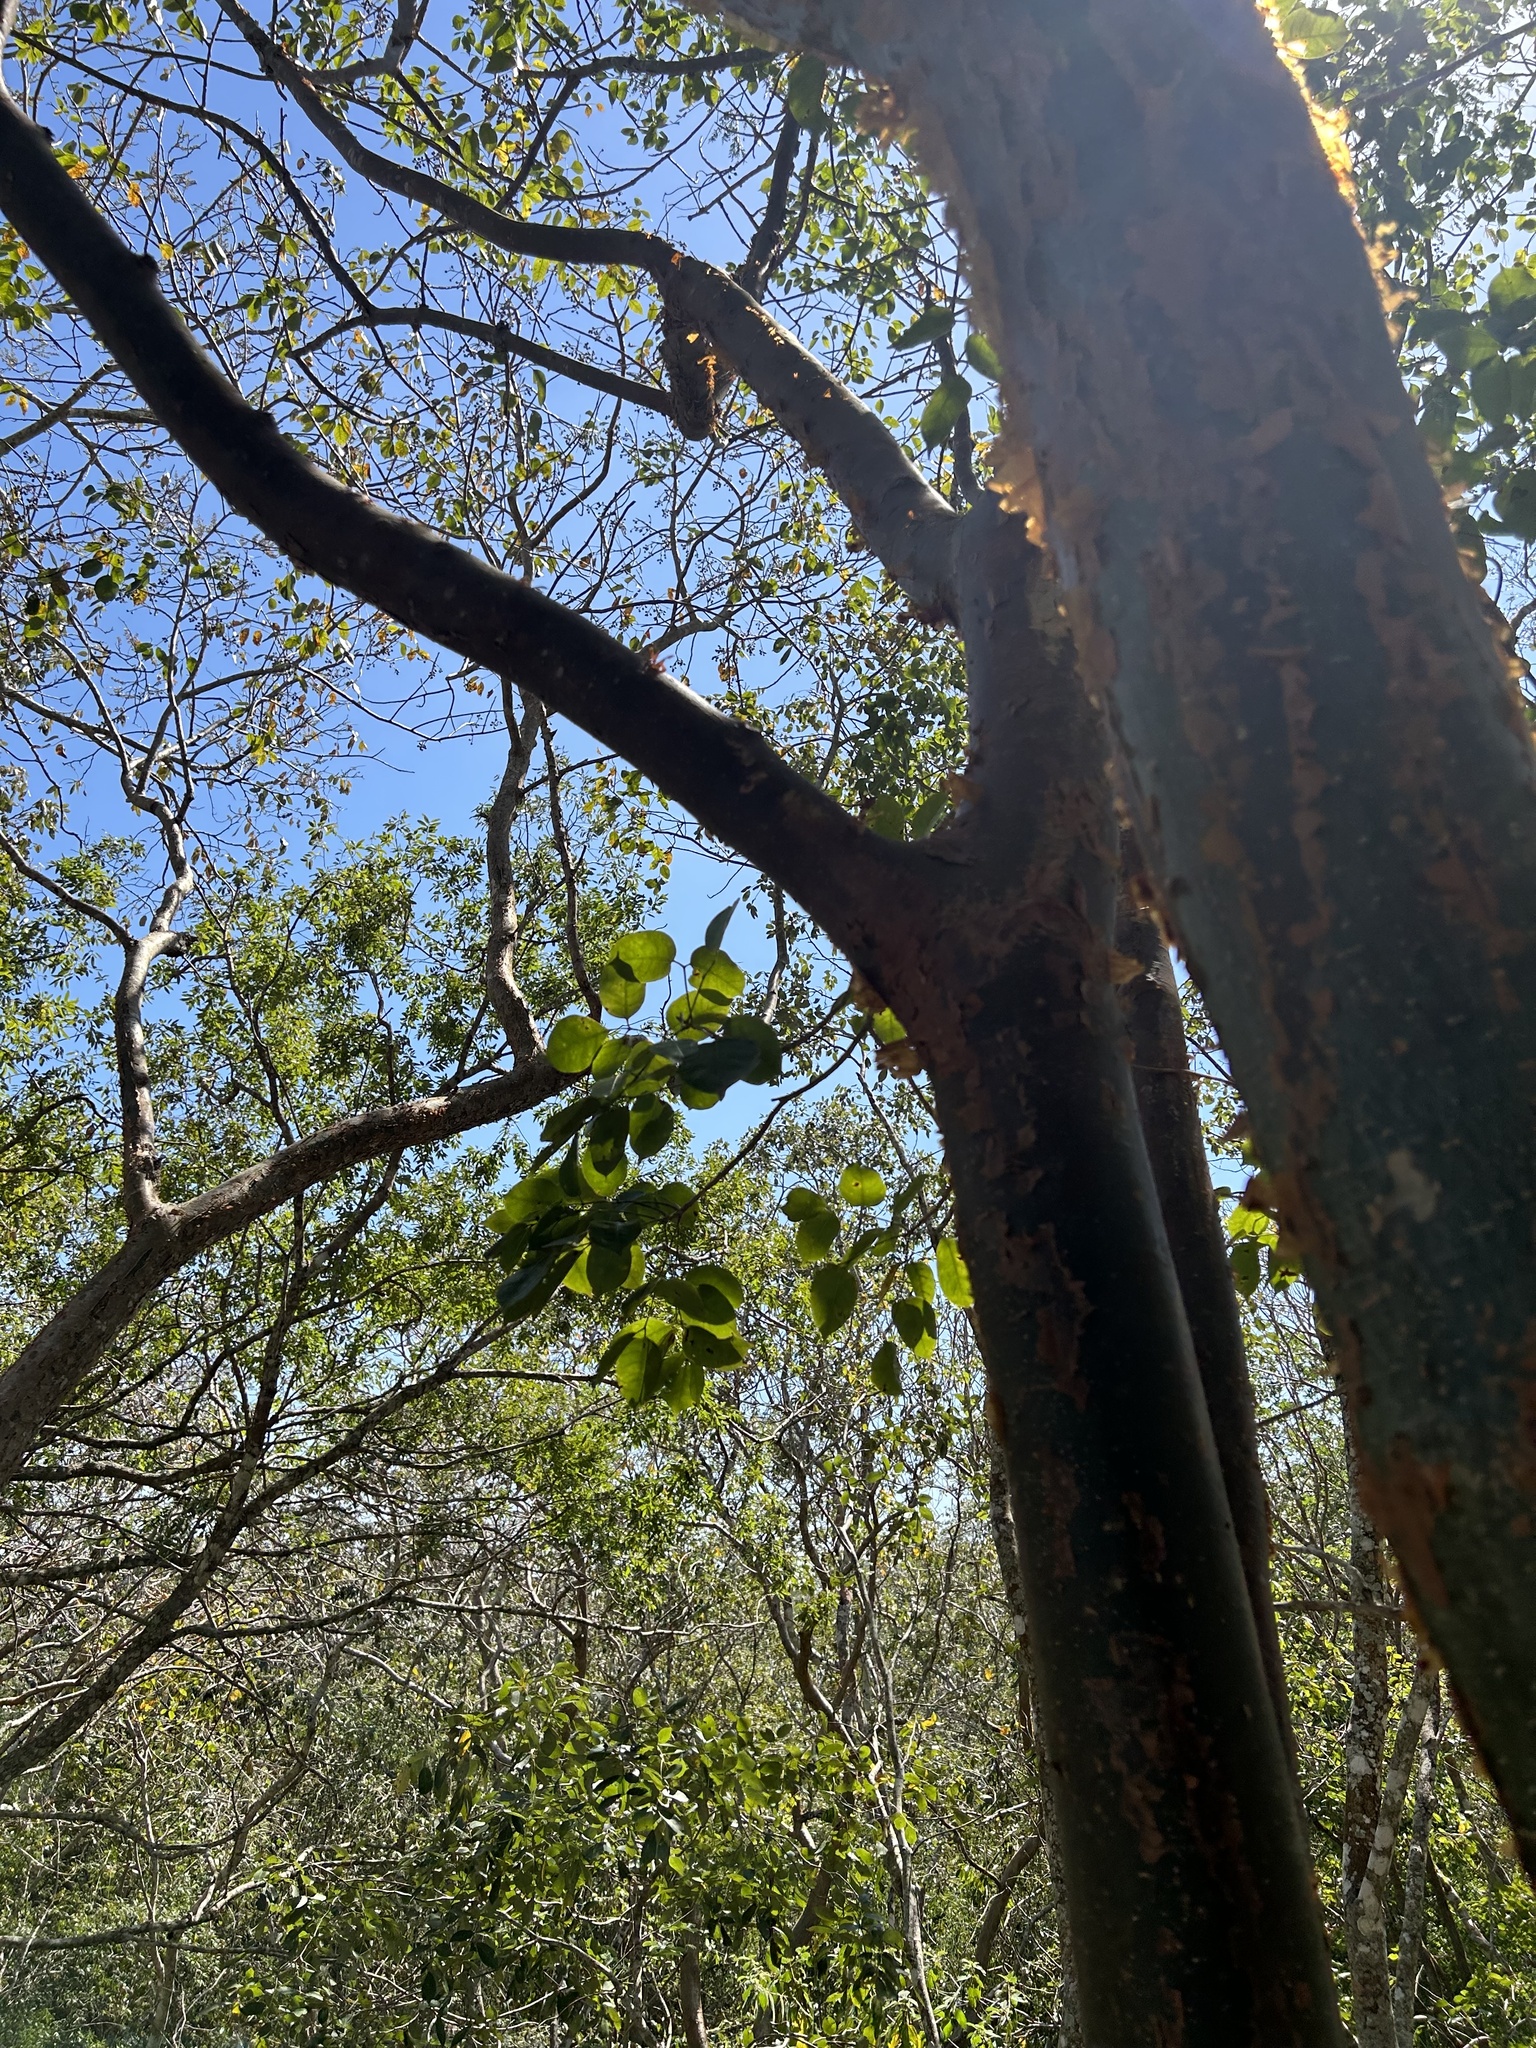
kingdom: Plantae
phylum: Tracheophyta
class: Magnoliopsida
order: Sapindales
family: Burseraceae
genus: Bursera
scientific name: Bursera simaruba
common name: Turpentine tree
